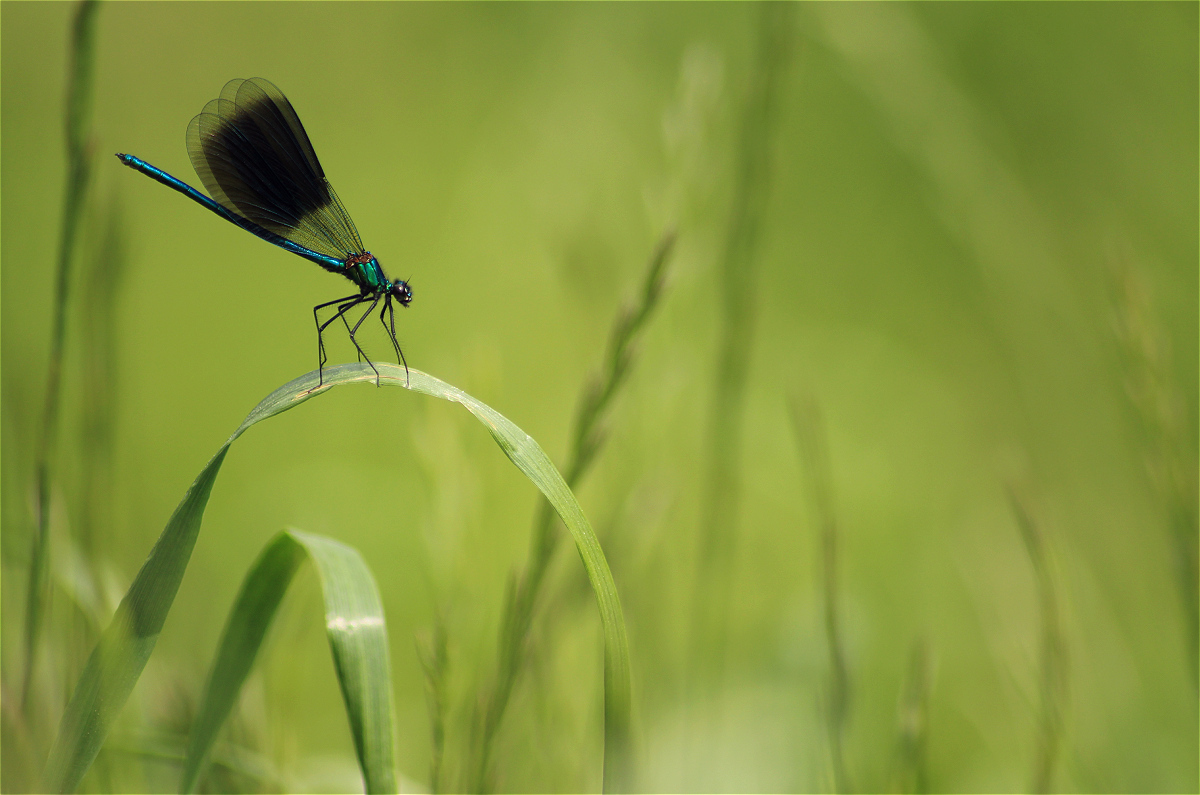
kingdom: Animalia
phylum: Arthropoda
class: Insecta
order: Odonata
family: Calopterygidae
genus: Calopteryx
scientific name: Calopteryx splendens
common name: Banded demoiselle
